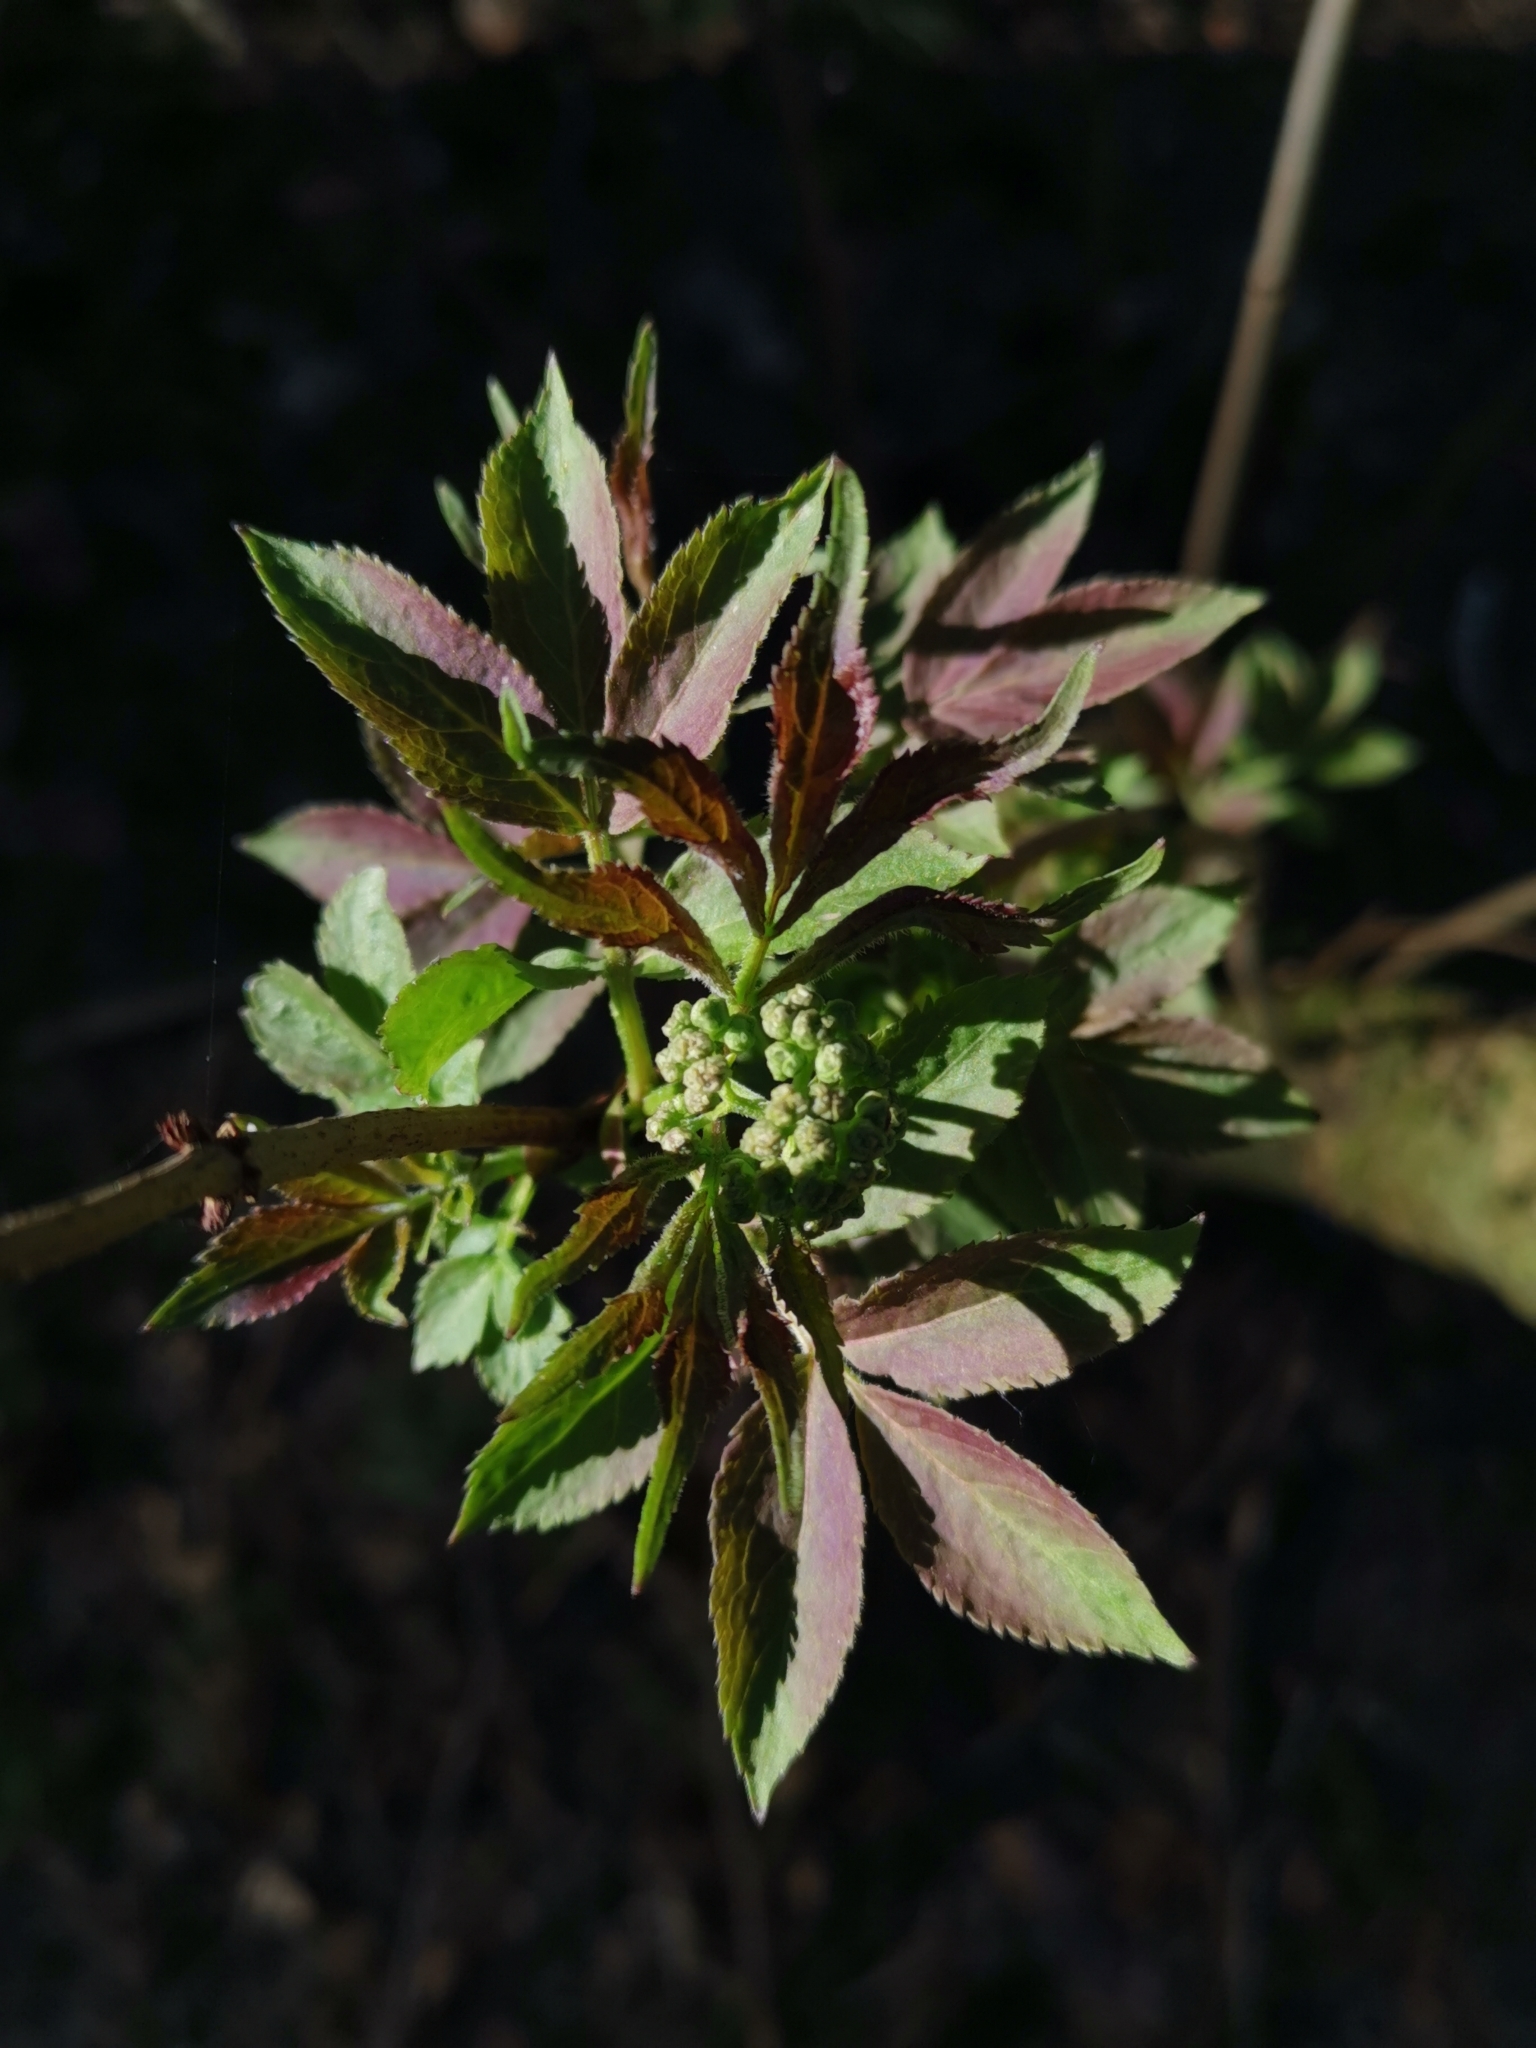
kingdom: Plantae
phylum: Tracheophyta
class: Magnoliopsida
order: Dipsacales
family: Viburnaceae
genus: Sambucus
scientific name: Sambucus racemosa
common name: Red-berried elder
